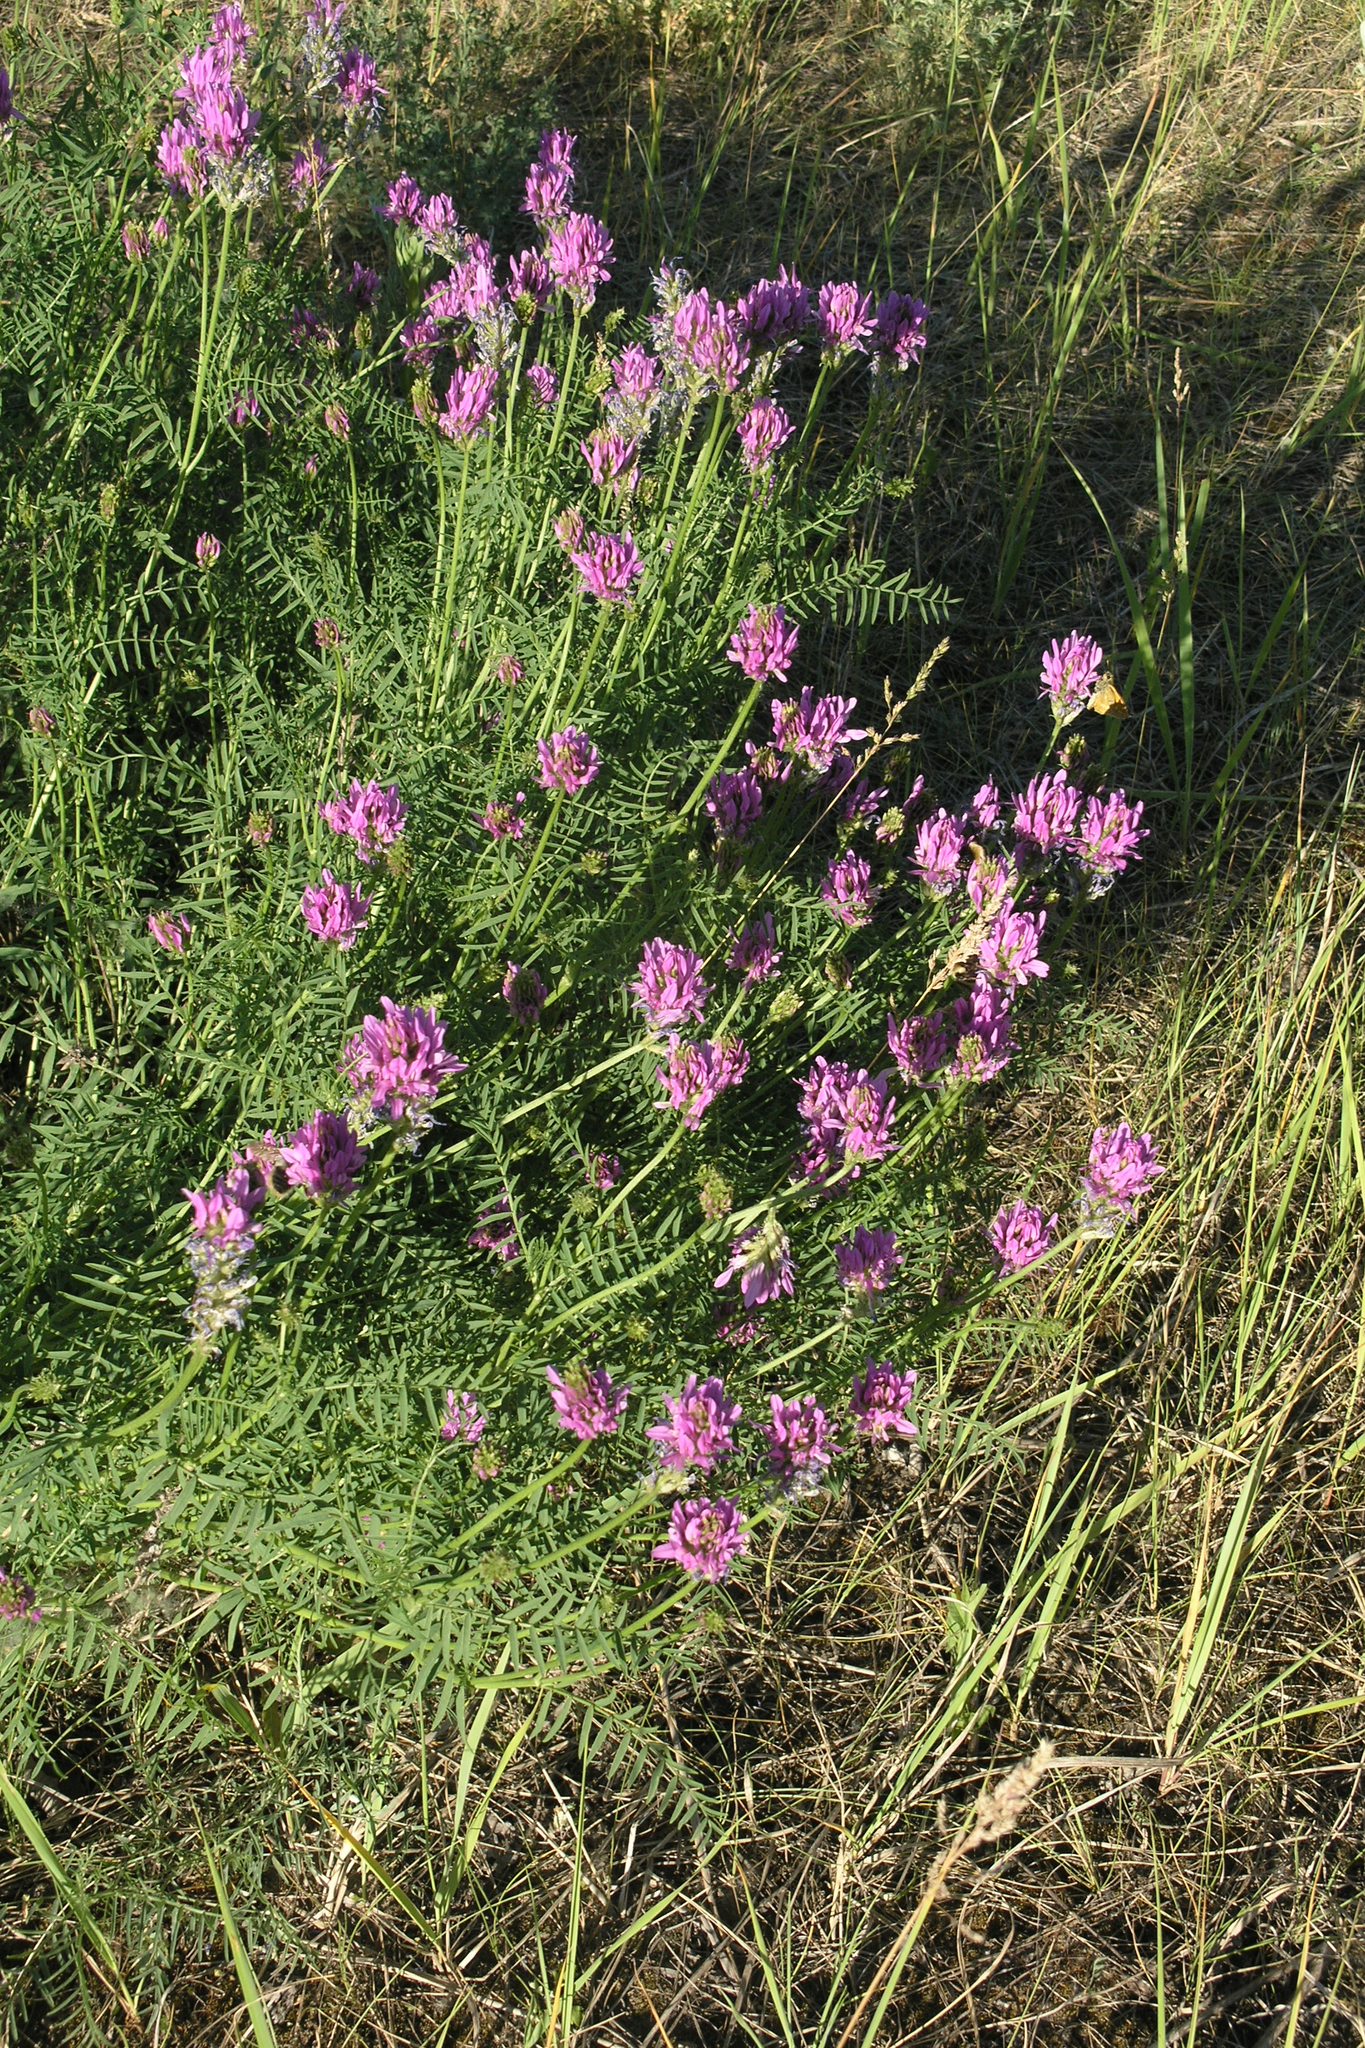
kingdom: Plantae
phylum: Tracheophyta
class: Magnoliopsida
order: Fabales
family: Fabaceae
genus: Astragalus
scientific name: Astragalus onobrychis
